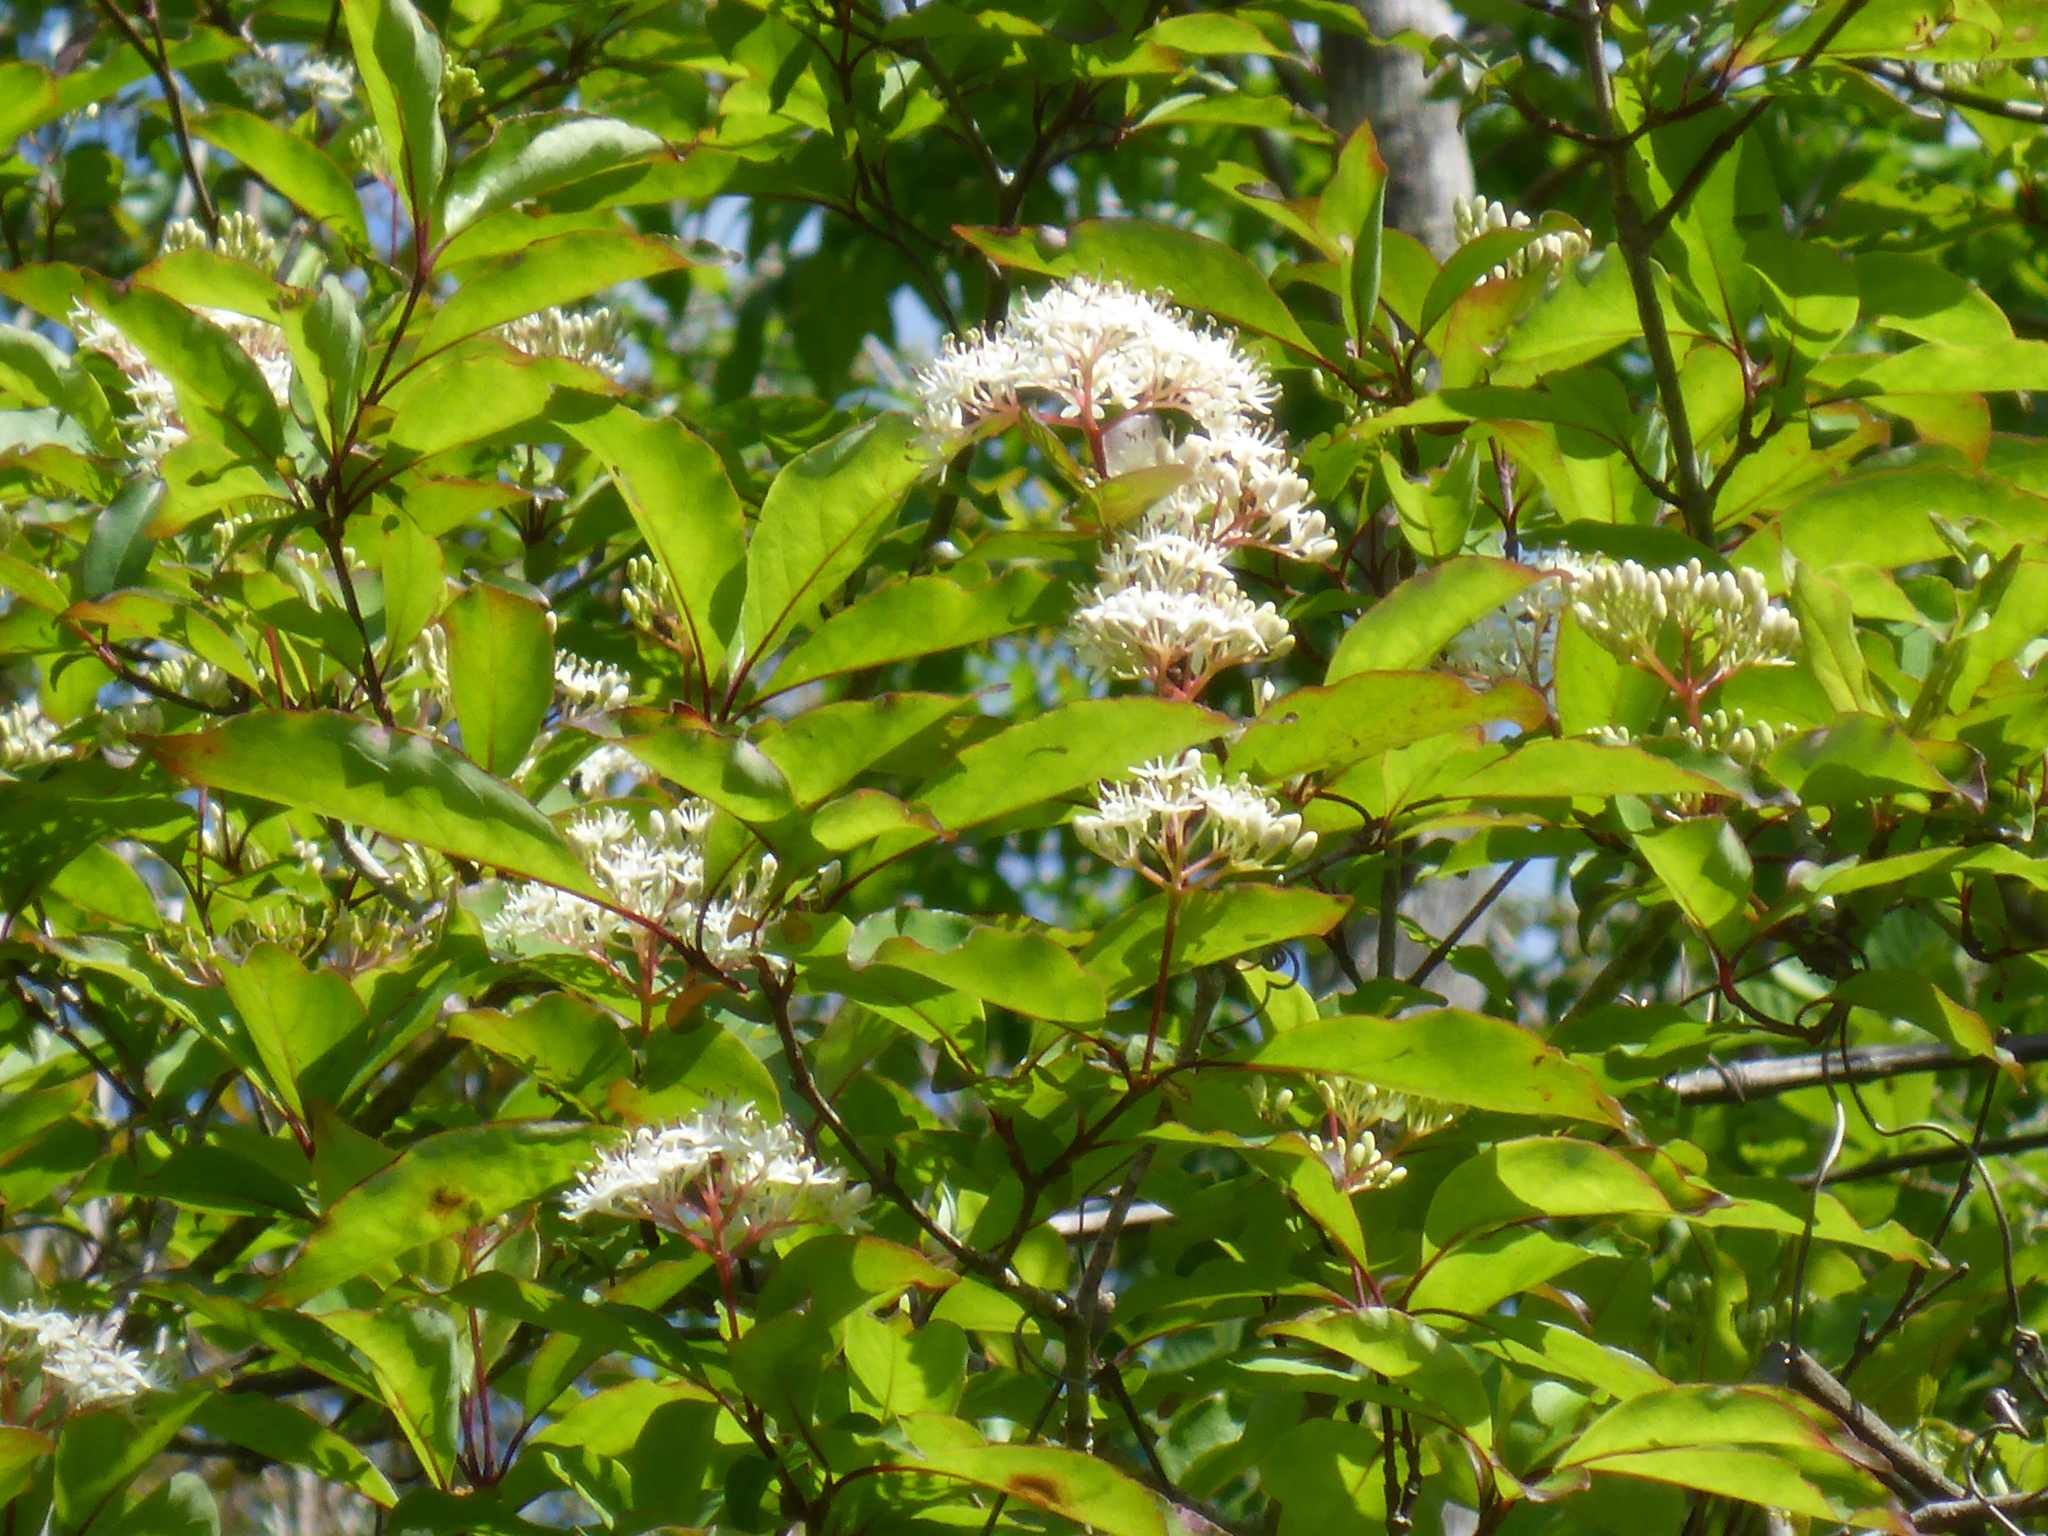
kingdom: Plantae
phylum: Tracheophyta
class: Magnoliopsida
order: Cornales
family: Cornaceae
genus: Cornus
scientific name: Cornus foemina
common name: Swamp dogwood
